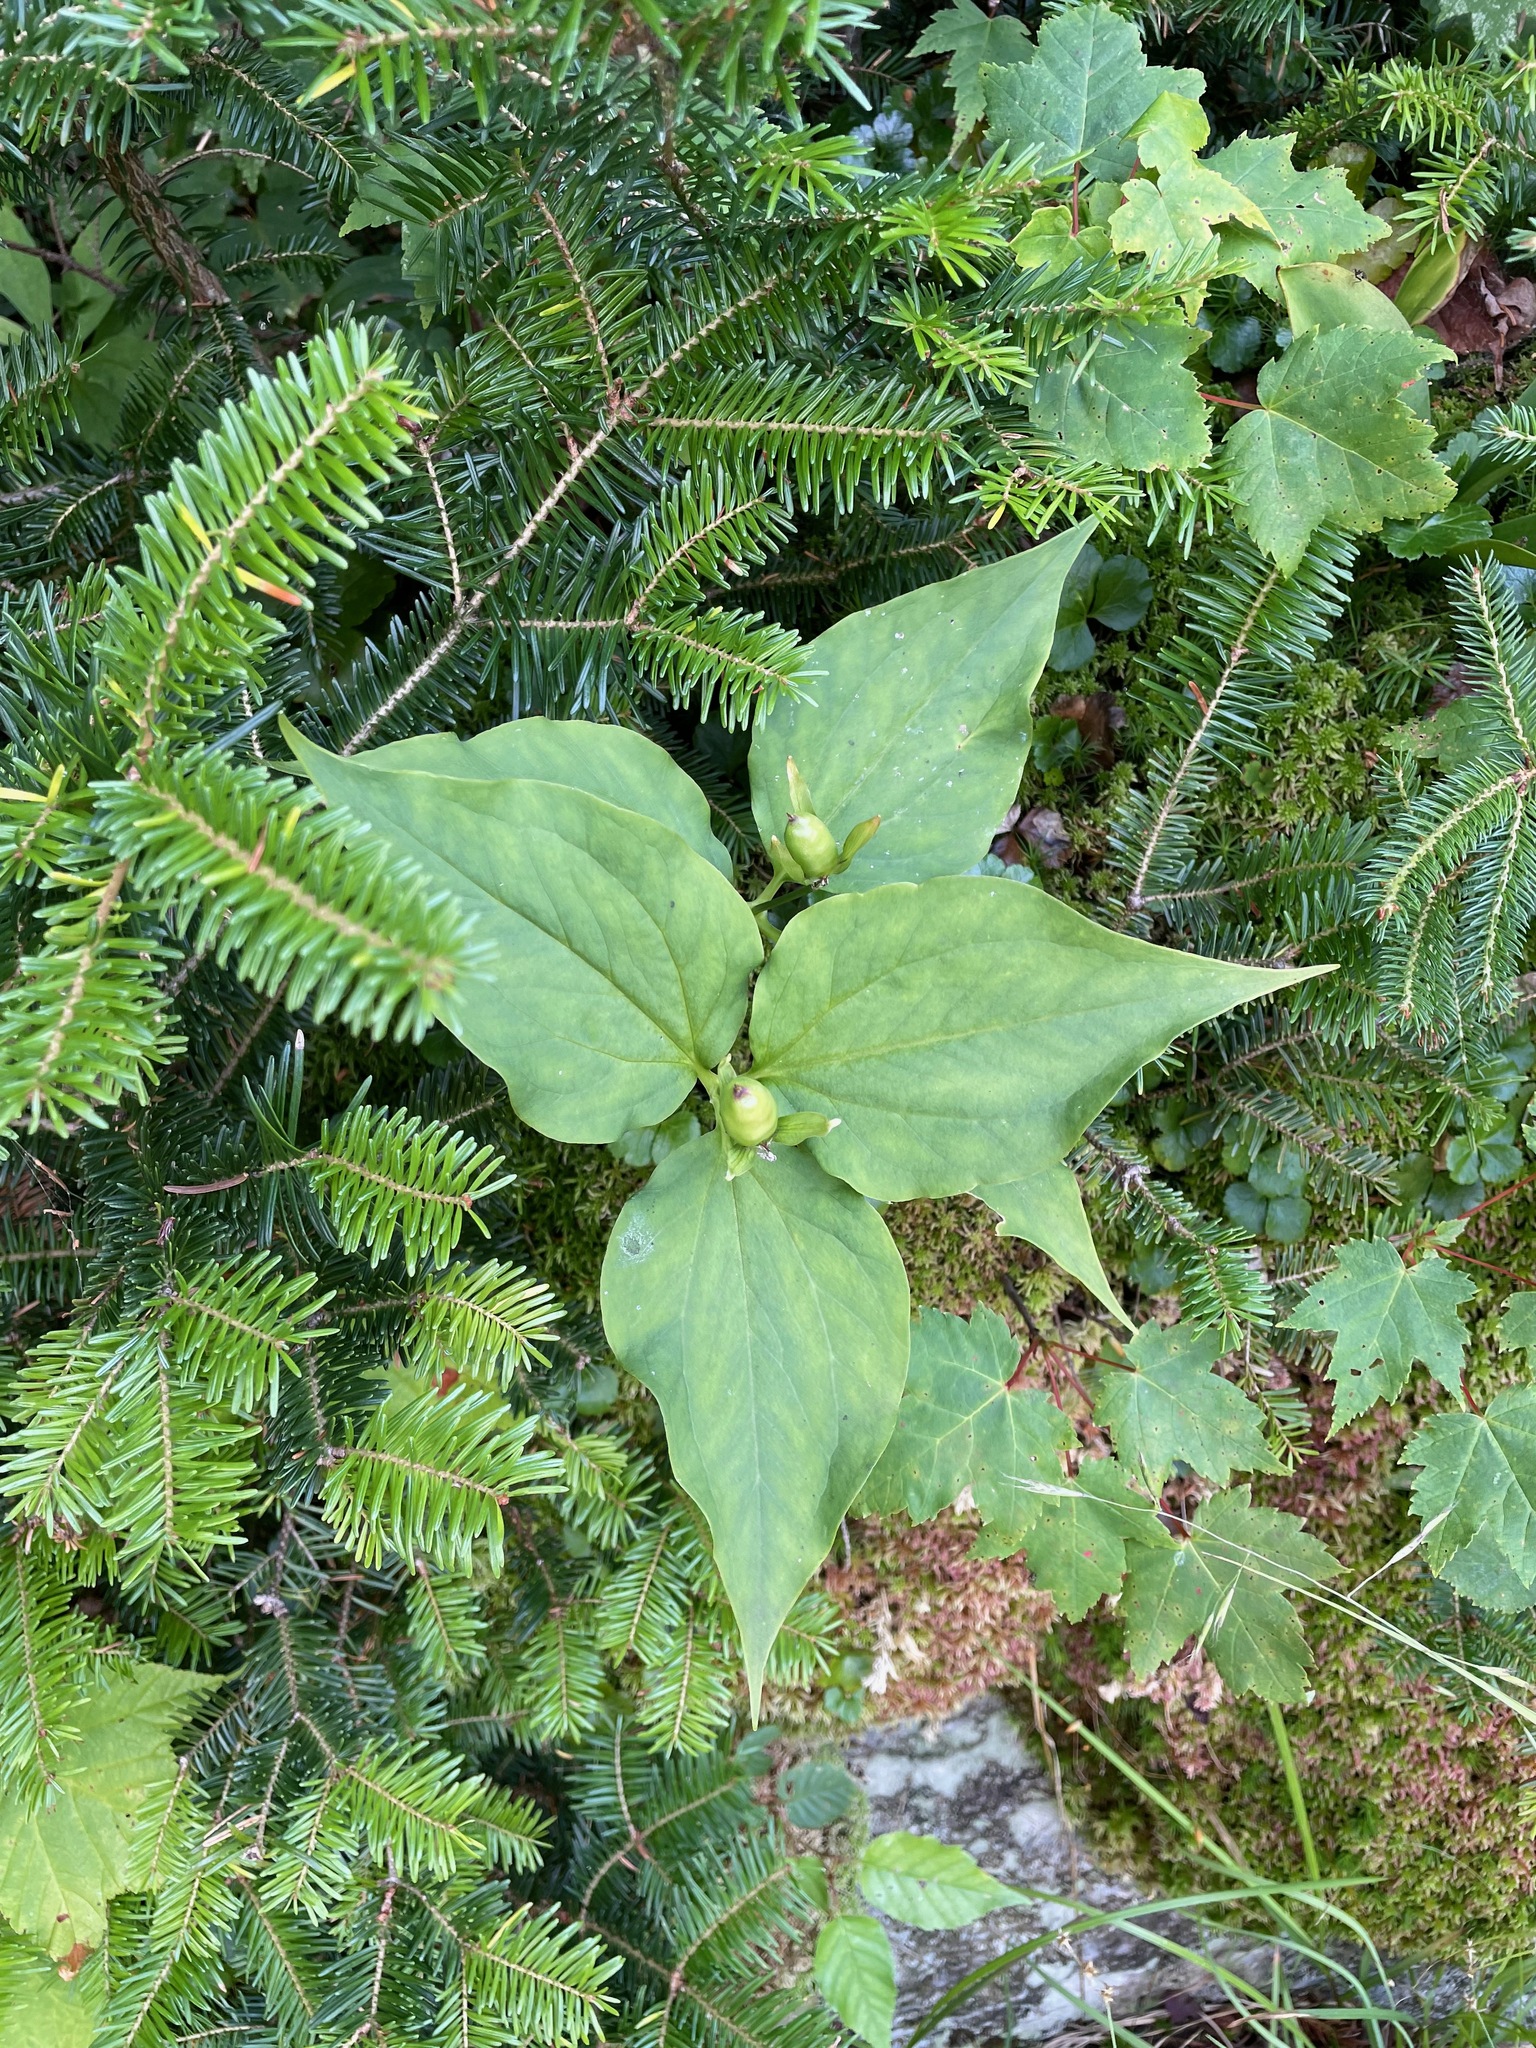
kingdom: Plantae
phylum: Tracheophyta
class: Liliopsida
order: Liliales
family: Melanthiaceae
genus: Trillium
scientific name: Trillium undulatum
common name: Paint trillium
